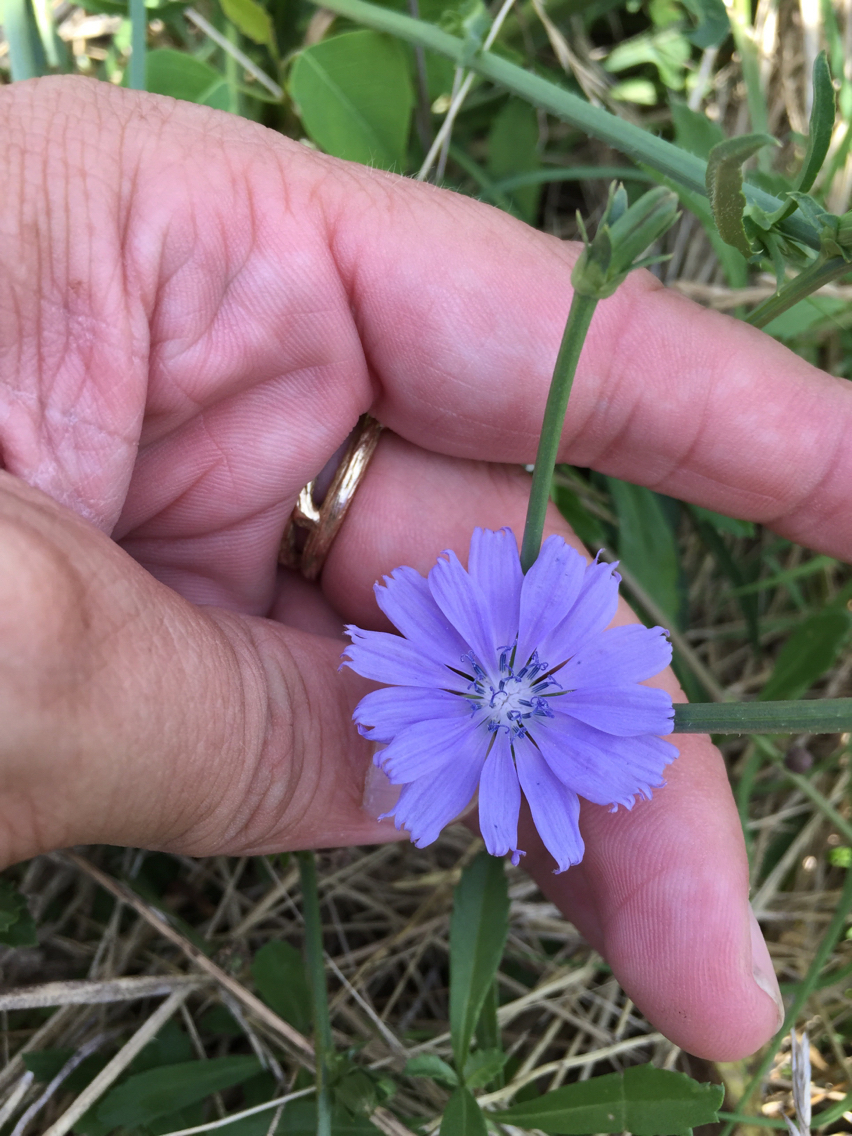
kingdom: Plantae
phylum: Tracheophyta
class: Magnoliopsida
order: Asterales
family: Asteraceae
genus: Cichorium
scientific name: Cichorium intybus
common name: Chicory
